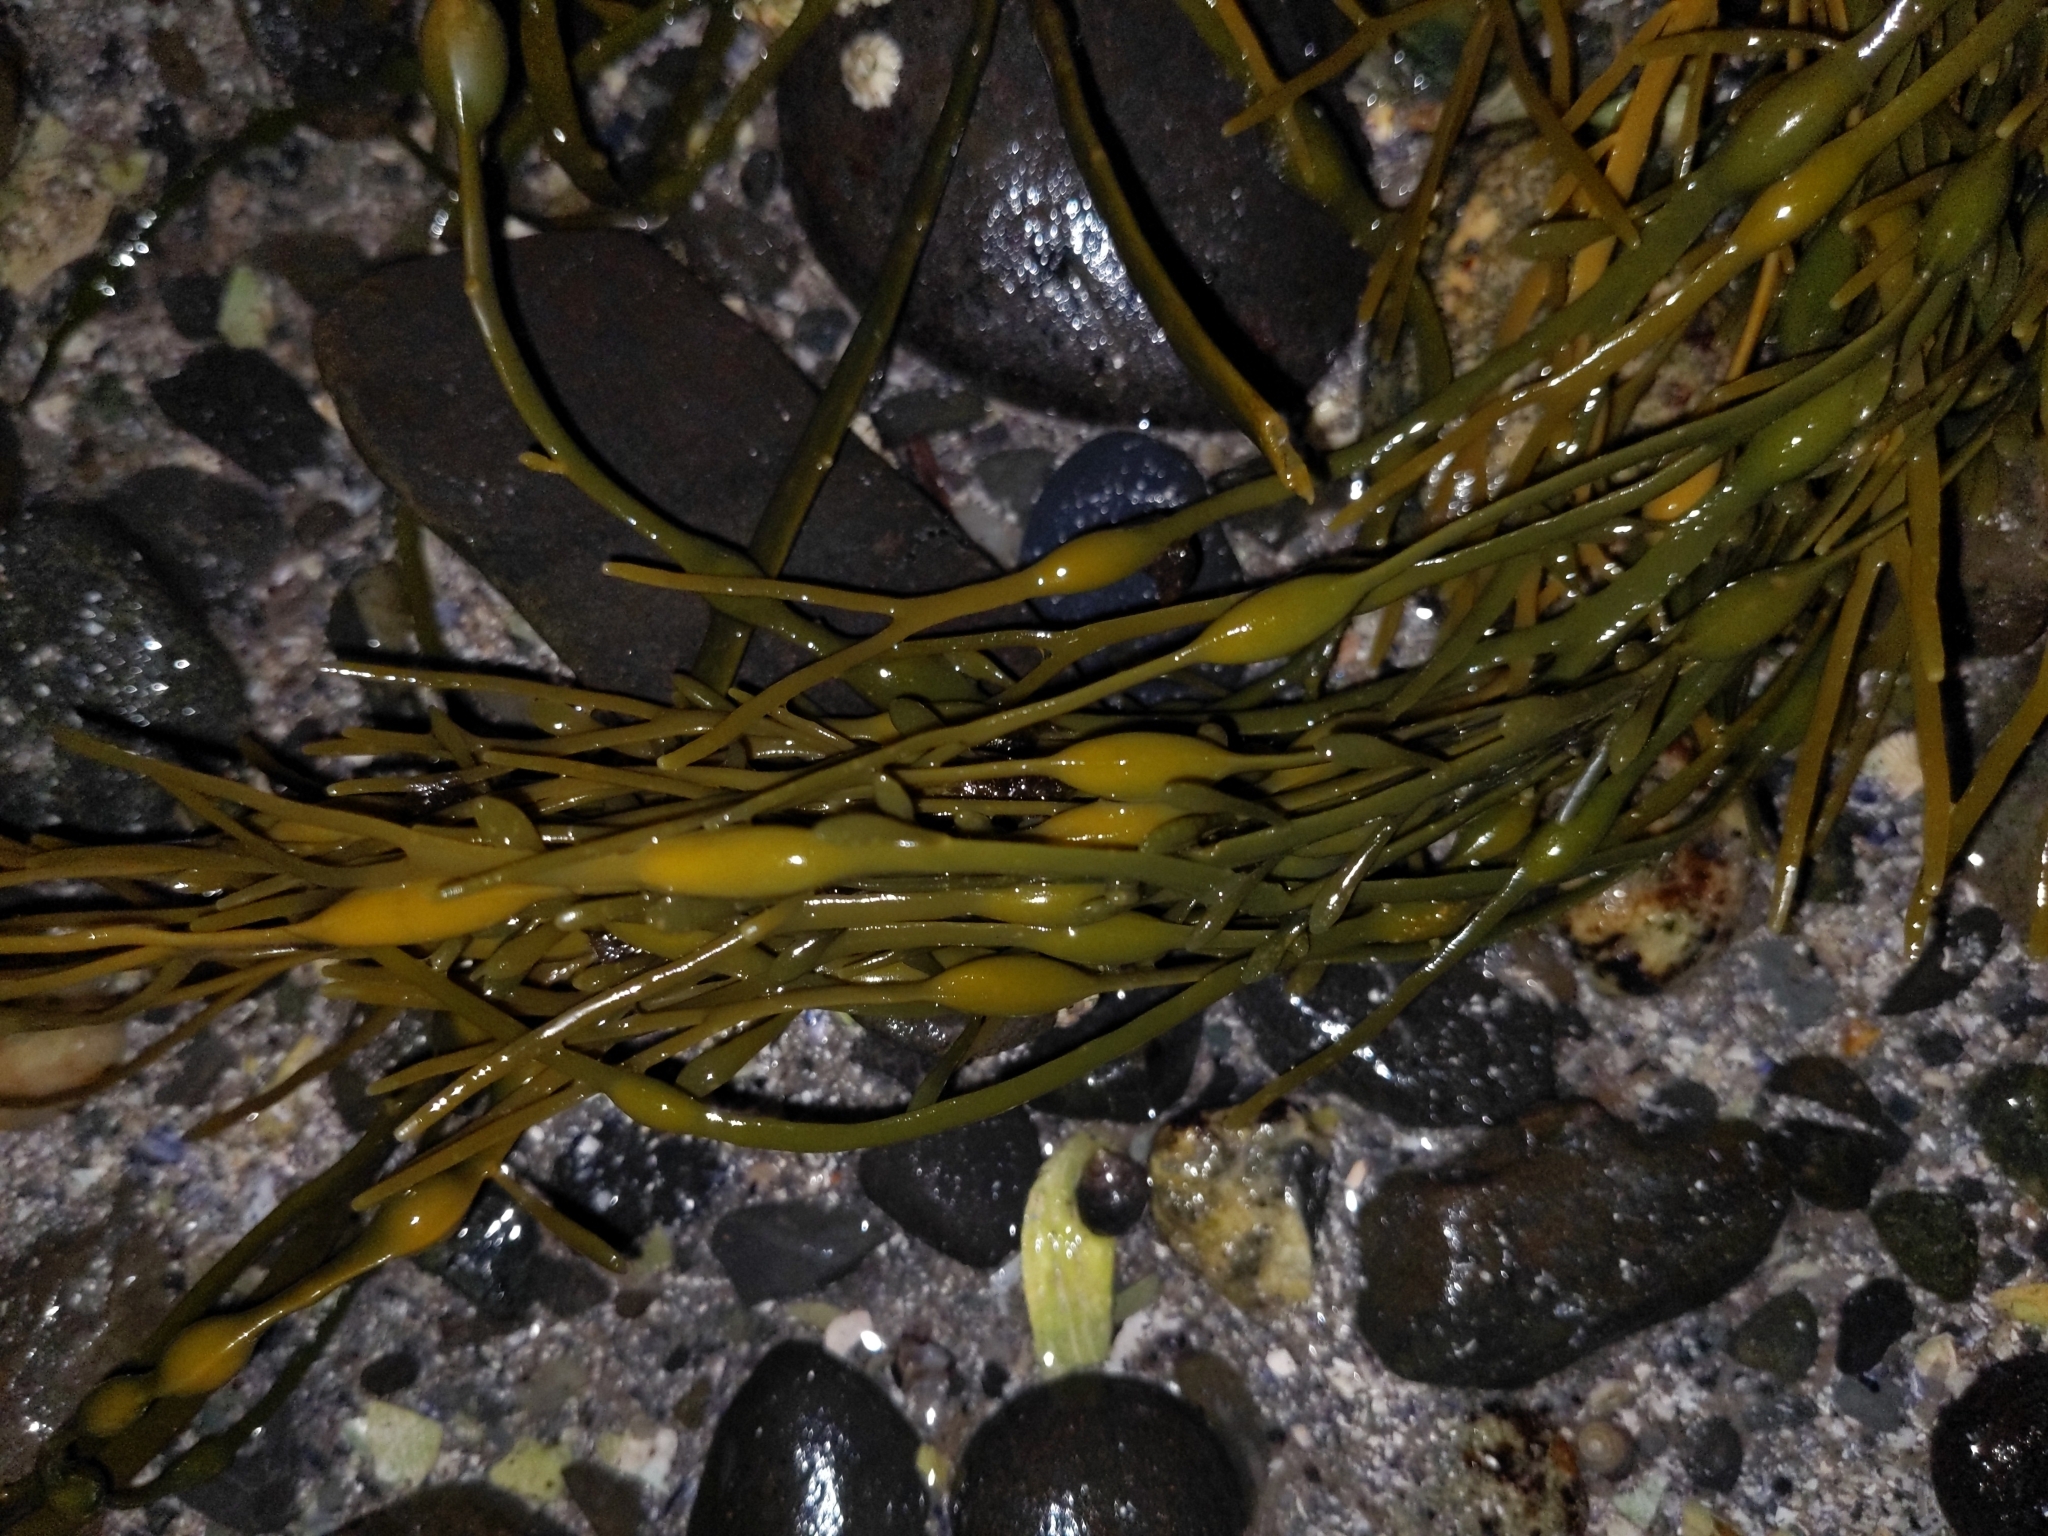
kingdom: Chromista
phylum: Ochrophyta
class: Phaeophyceae
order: Fucales
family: Fucaceae
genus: Ascophyllum
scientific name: Ascophyllum nodosum
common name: Knotted wrack
